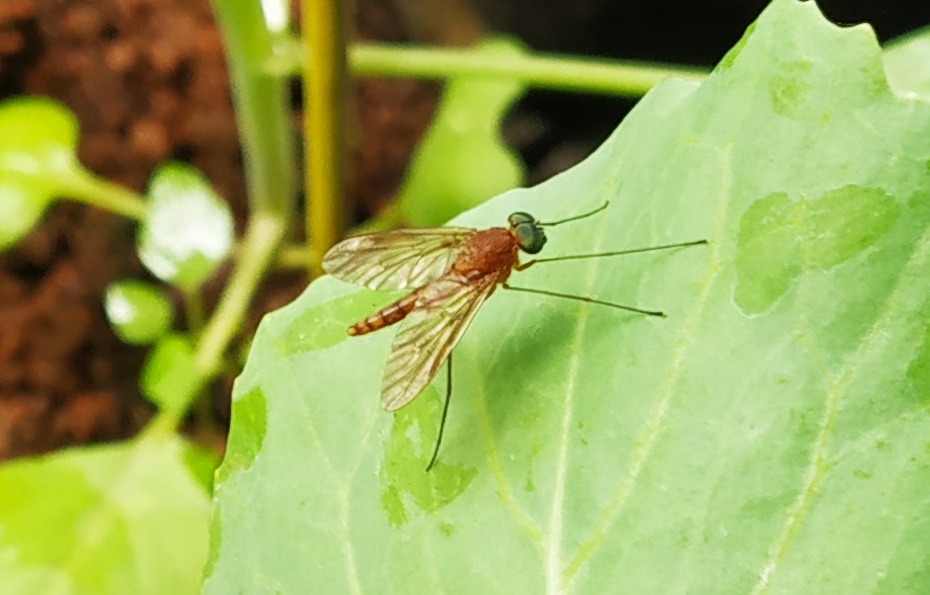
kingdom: Animalia
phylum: Arthropoda
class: Insecta
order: Diptera
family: Rhagionidae
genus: Chrysopilus
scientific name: Chrysopilus ferruginosus
